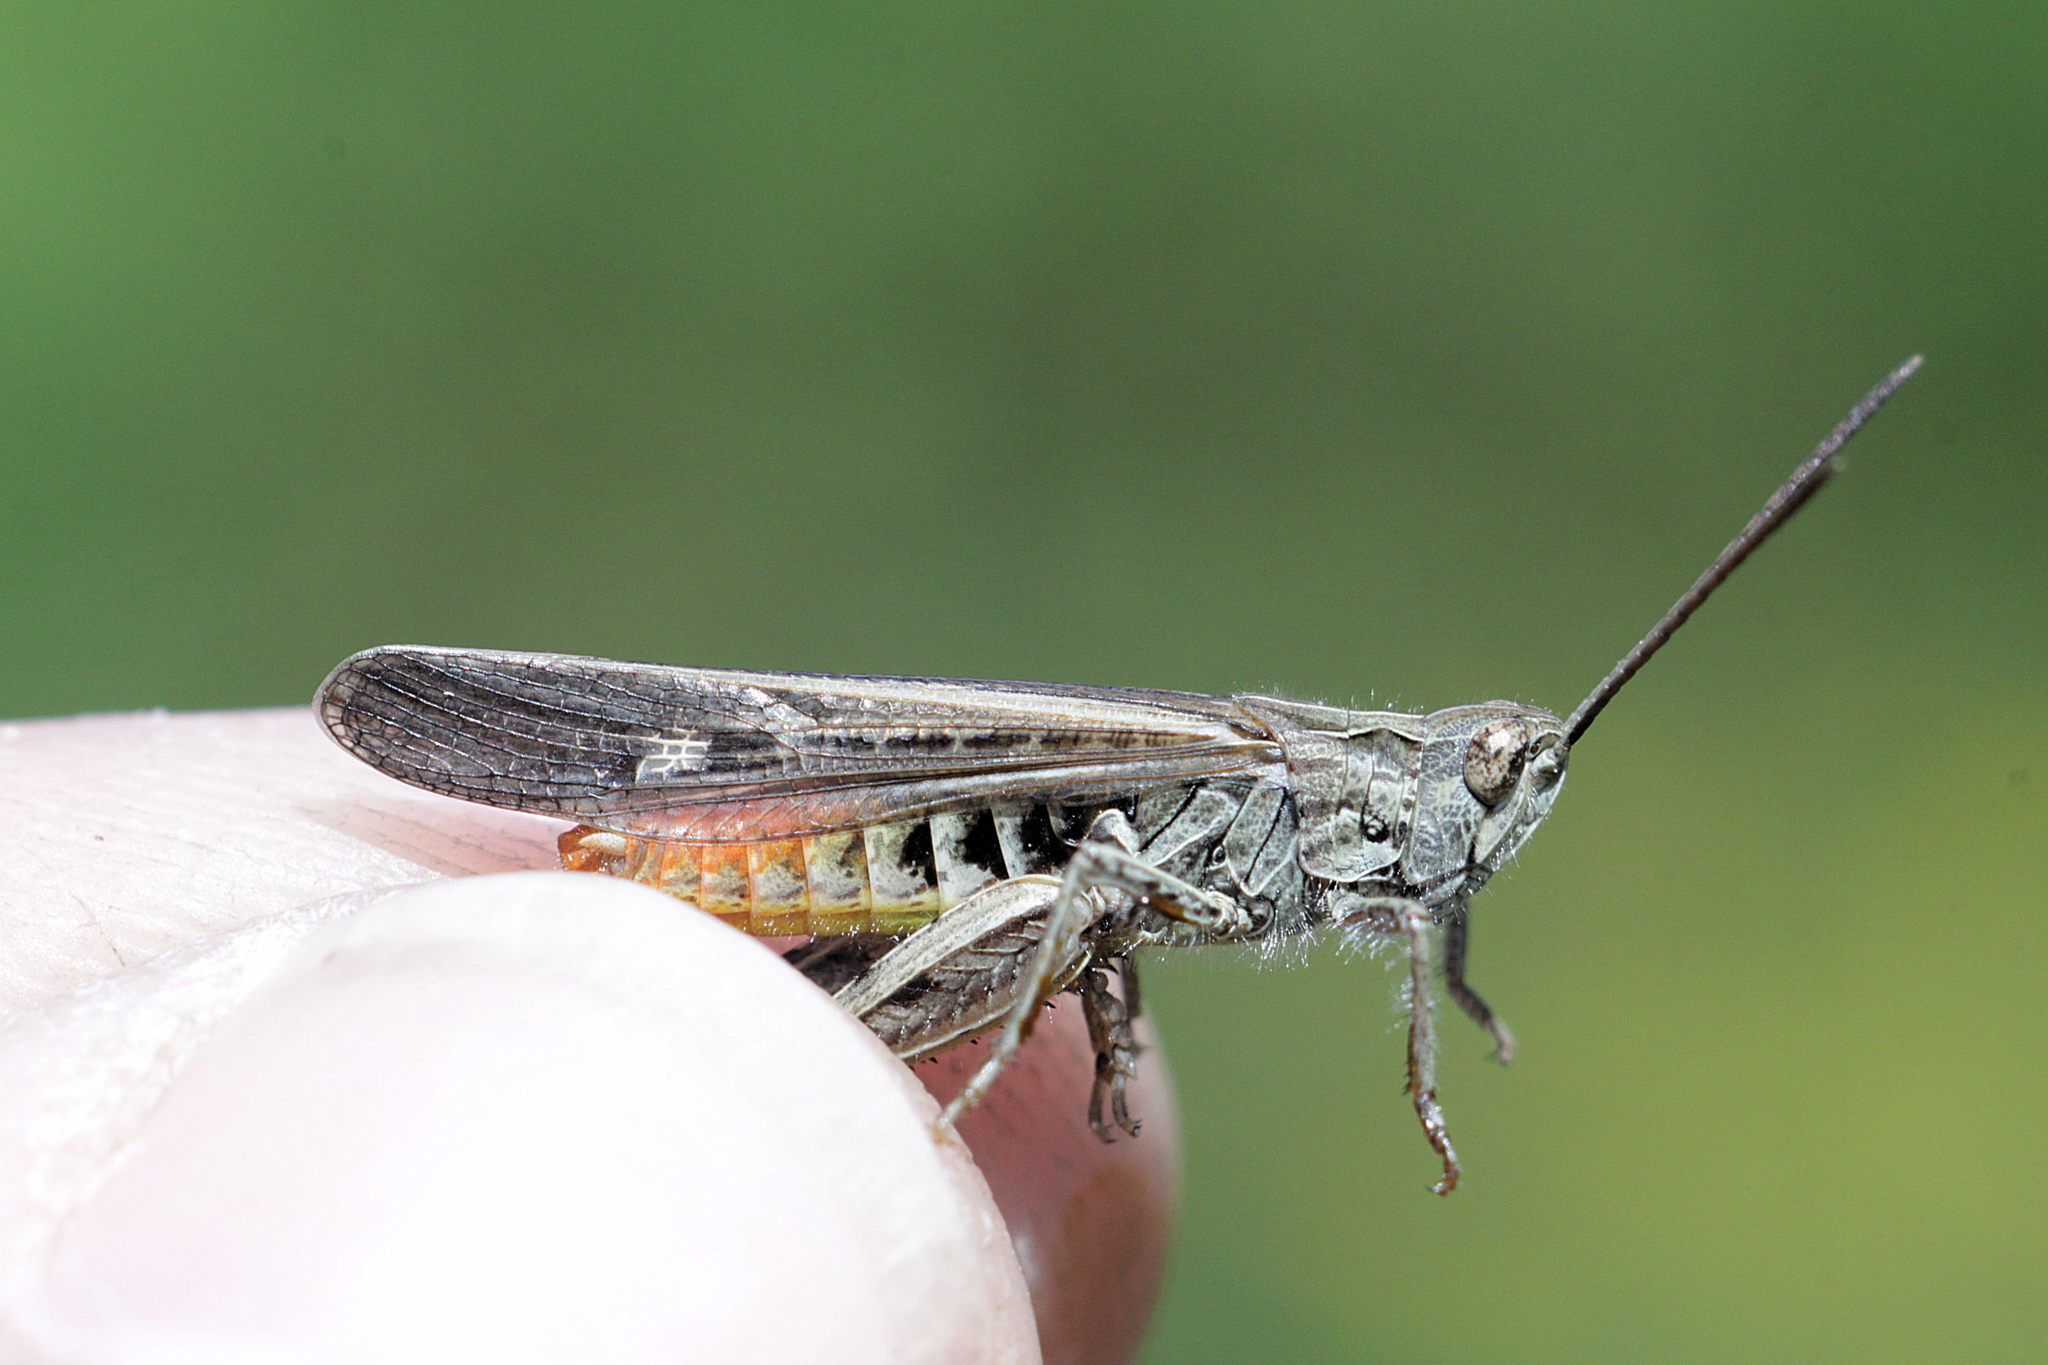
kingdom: Animalia
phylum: Arthropoda
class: Insecta
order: Orthoptera
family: Acrididae
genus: Chorthippus
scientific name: Chorthippus brunneus
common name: Field grasshopper
